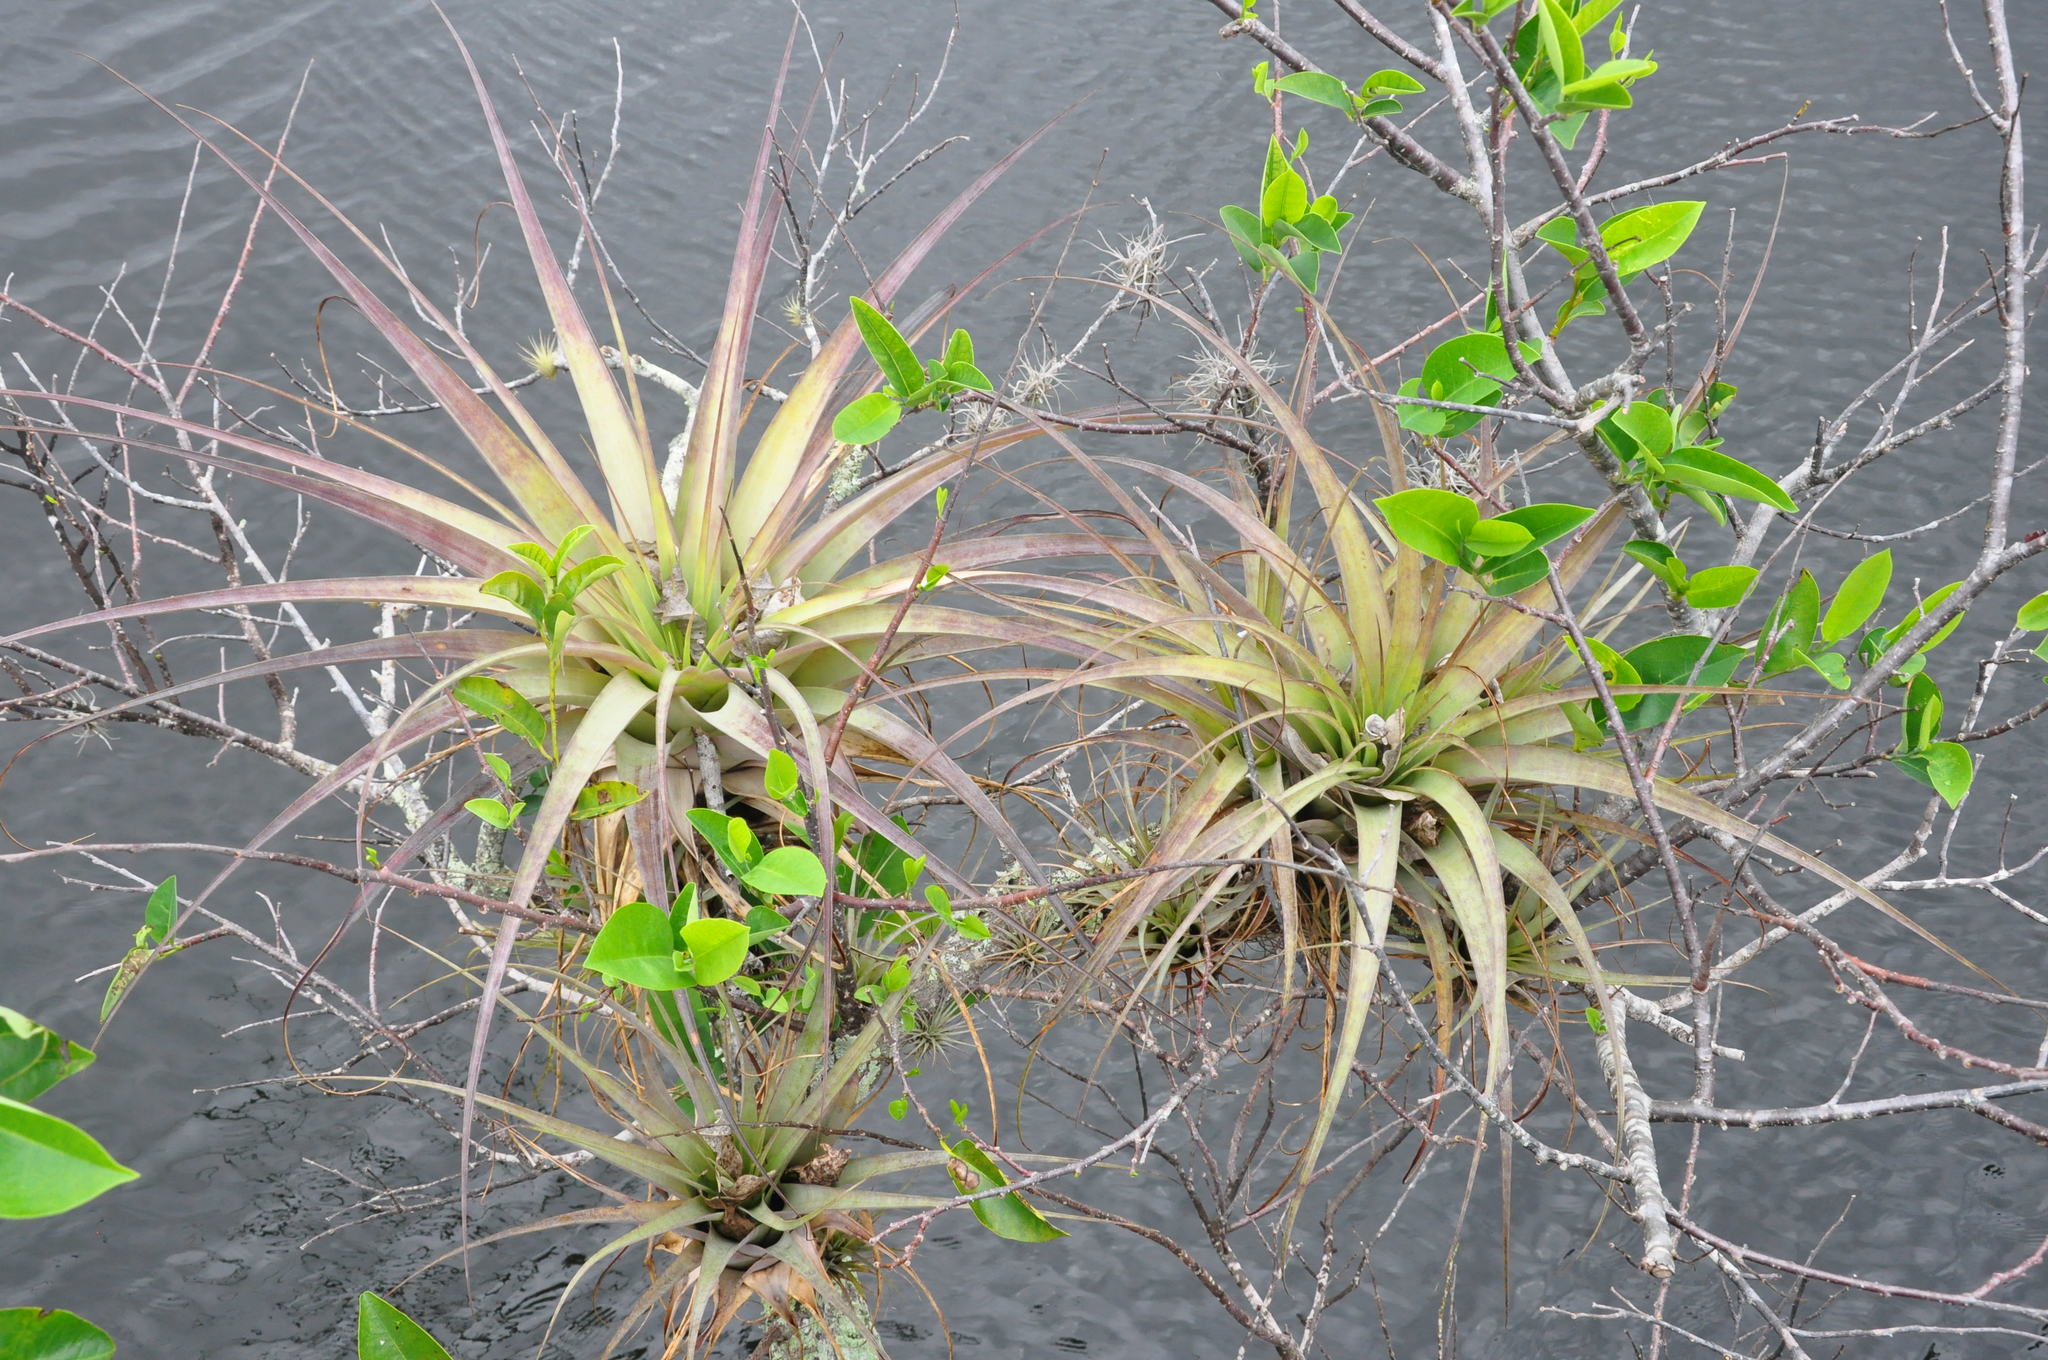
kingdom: Plantae
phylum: Tracheophyta
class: Liliopsida
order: Poales
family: Bromeliaceae
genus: Tillandsia
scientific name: Tillandsia utriculata
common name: Wild pine
